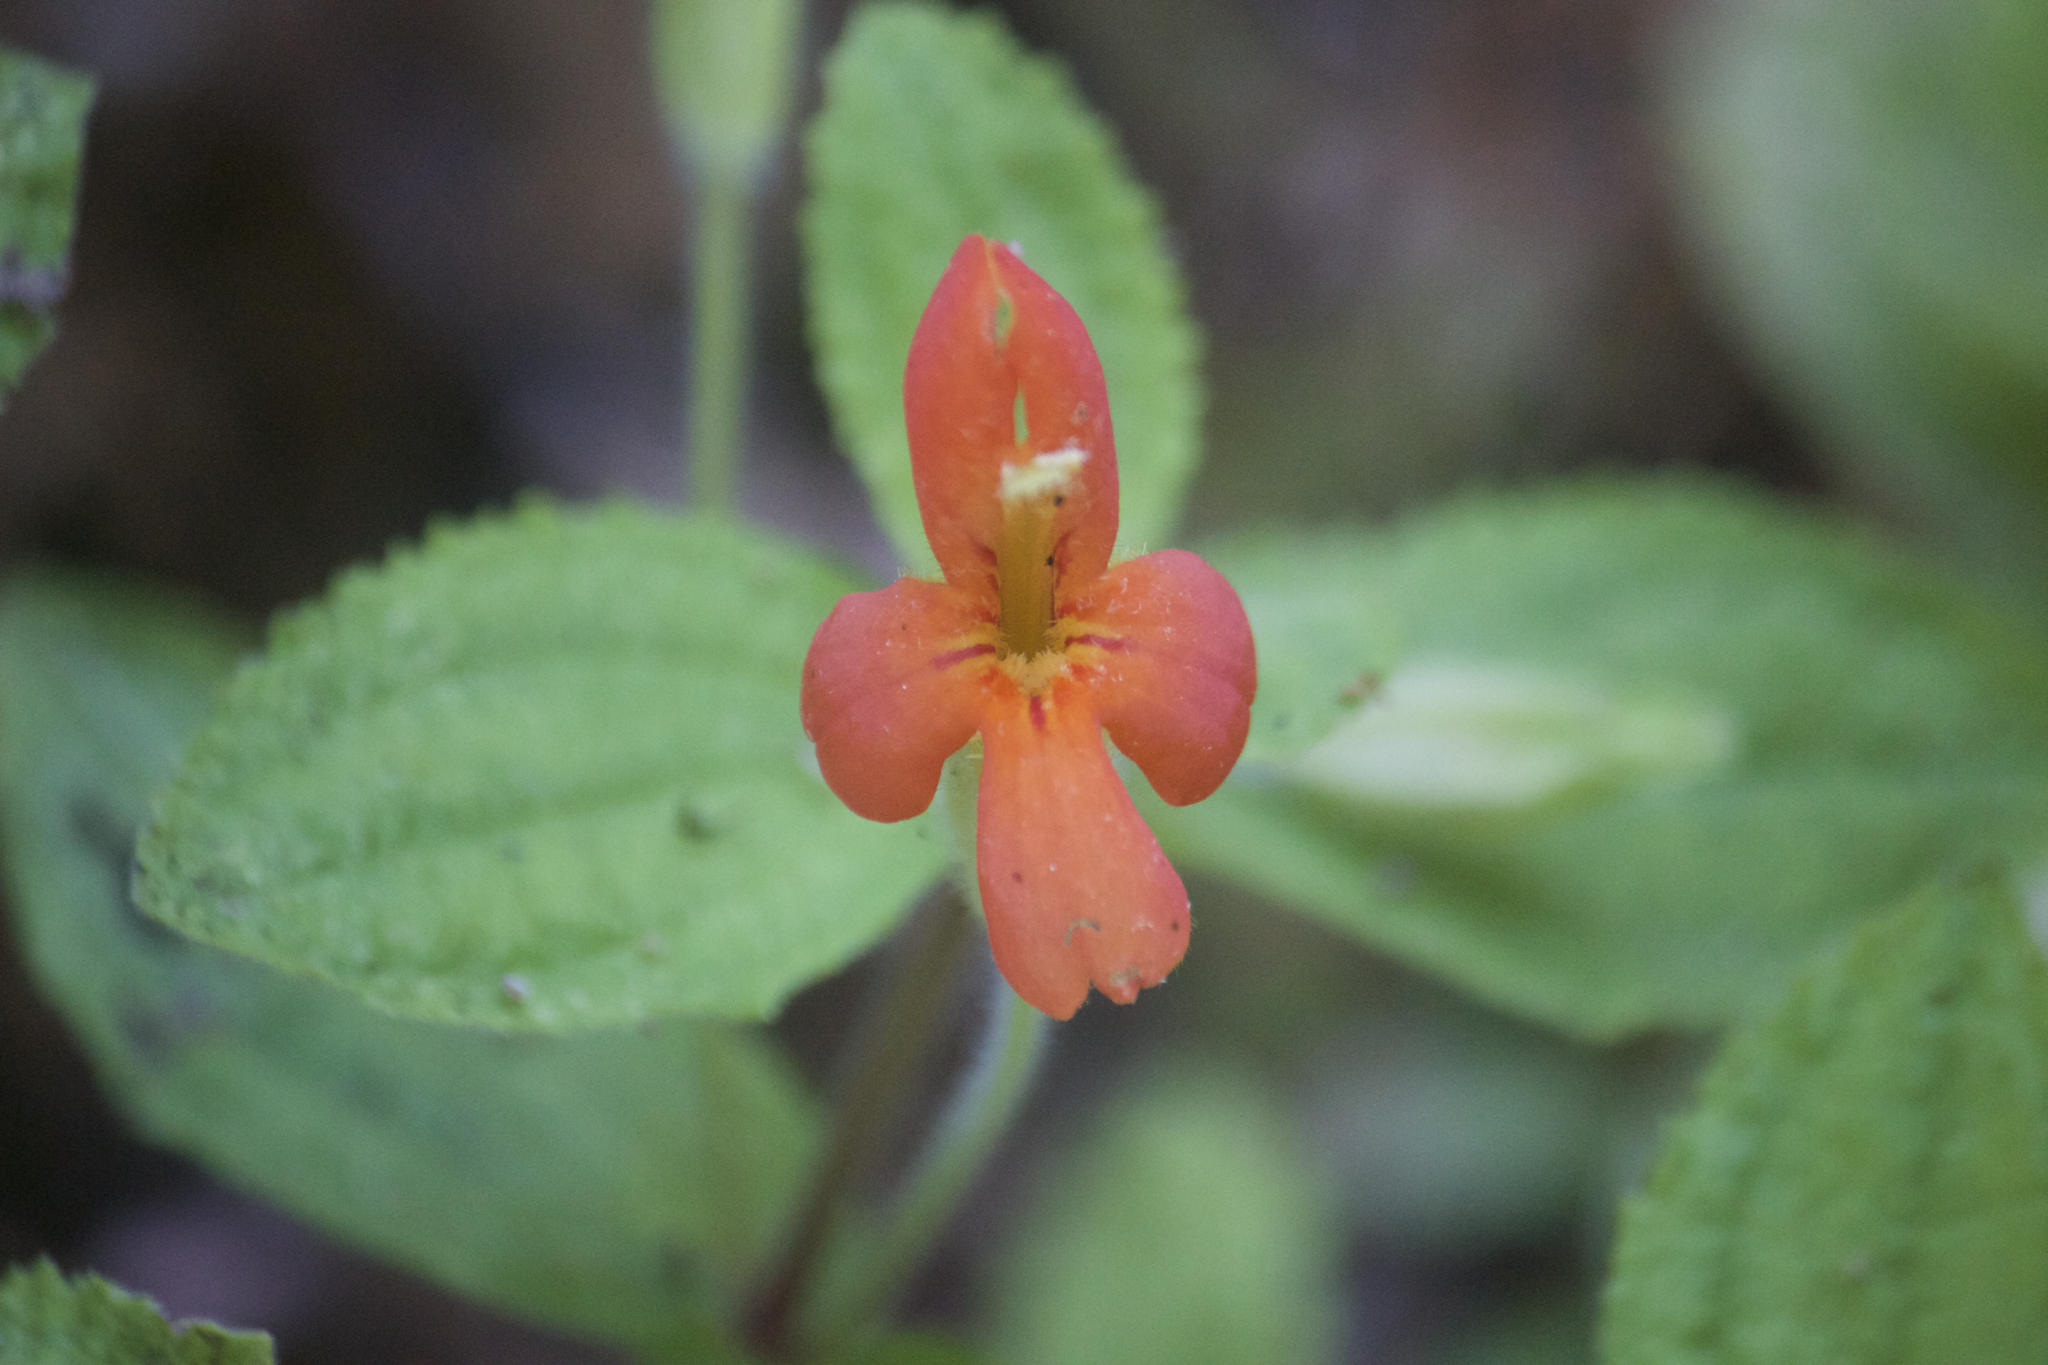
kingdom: Plantae
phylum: Tracheophyta
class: Magnoliopsida
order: Lamiales
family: Phrymaceae
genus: Erythranthe
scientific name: Erythranthe cardinalis
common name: Scarlet monkey-flower
